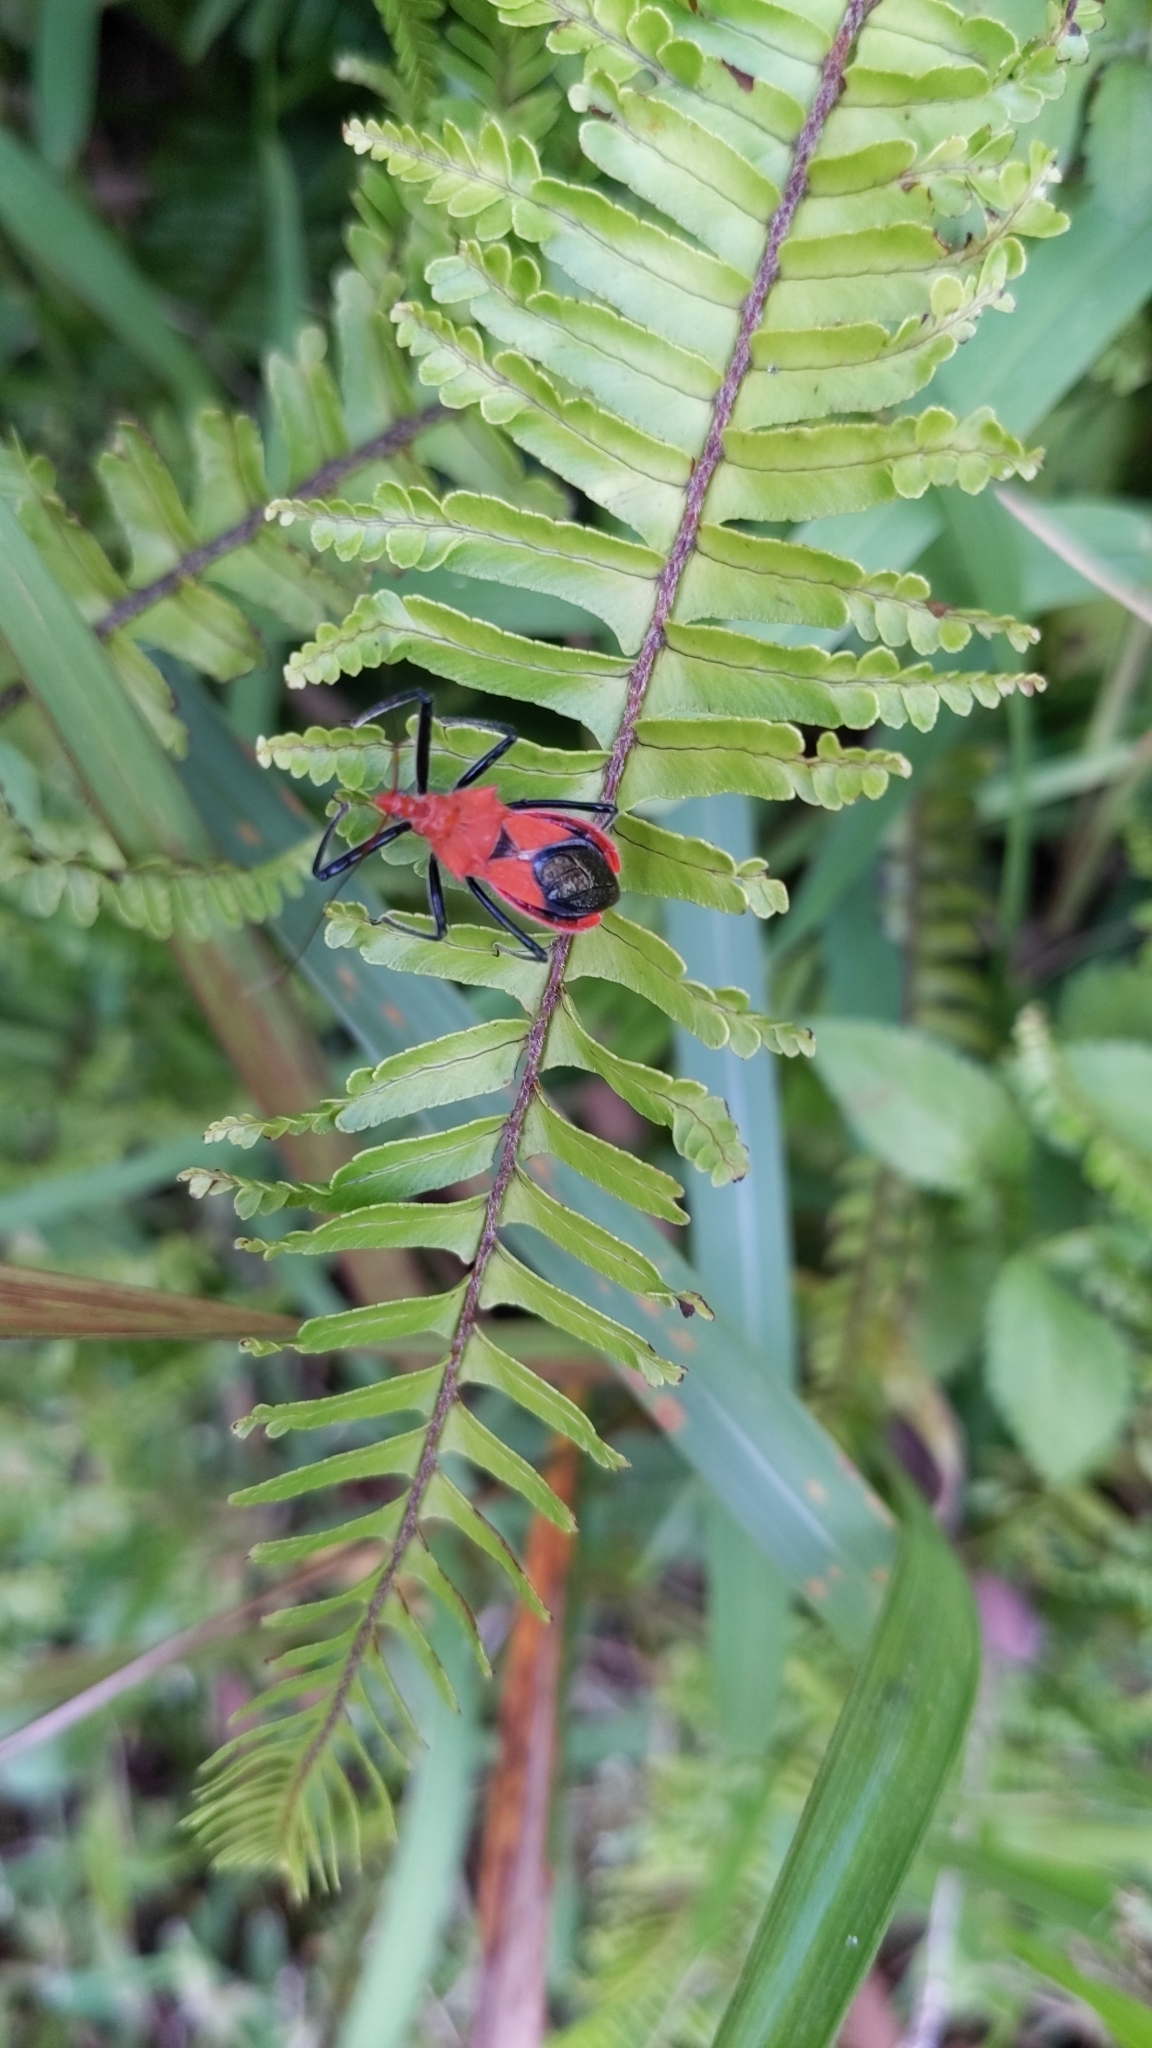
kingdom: Animalia
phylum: Arthropoda
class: Insecta
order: Hemiptera
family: Reduviidae
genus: Gminatus
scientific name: Gminatus australis
